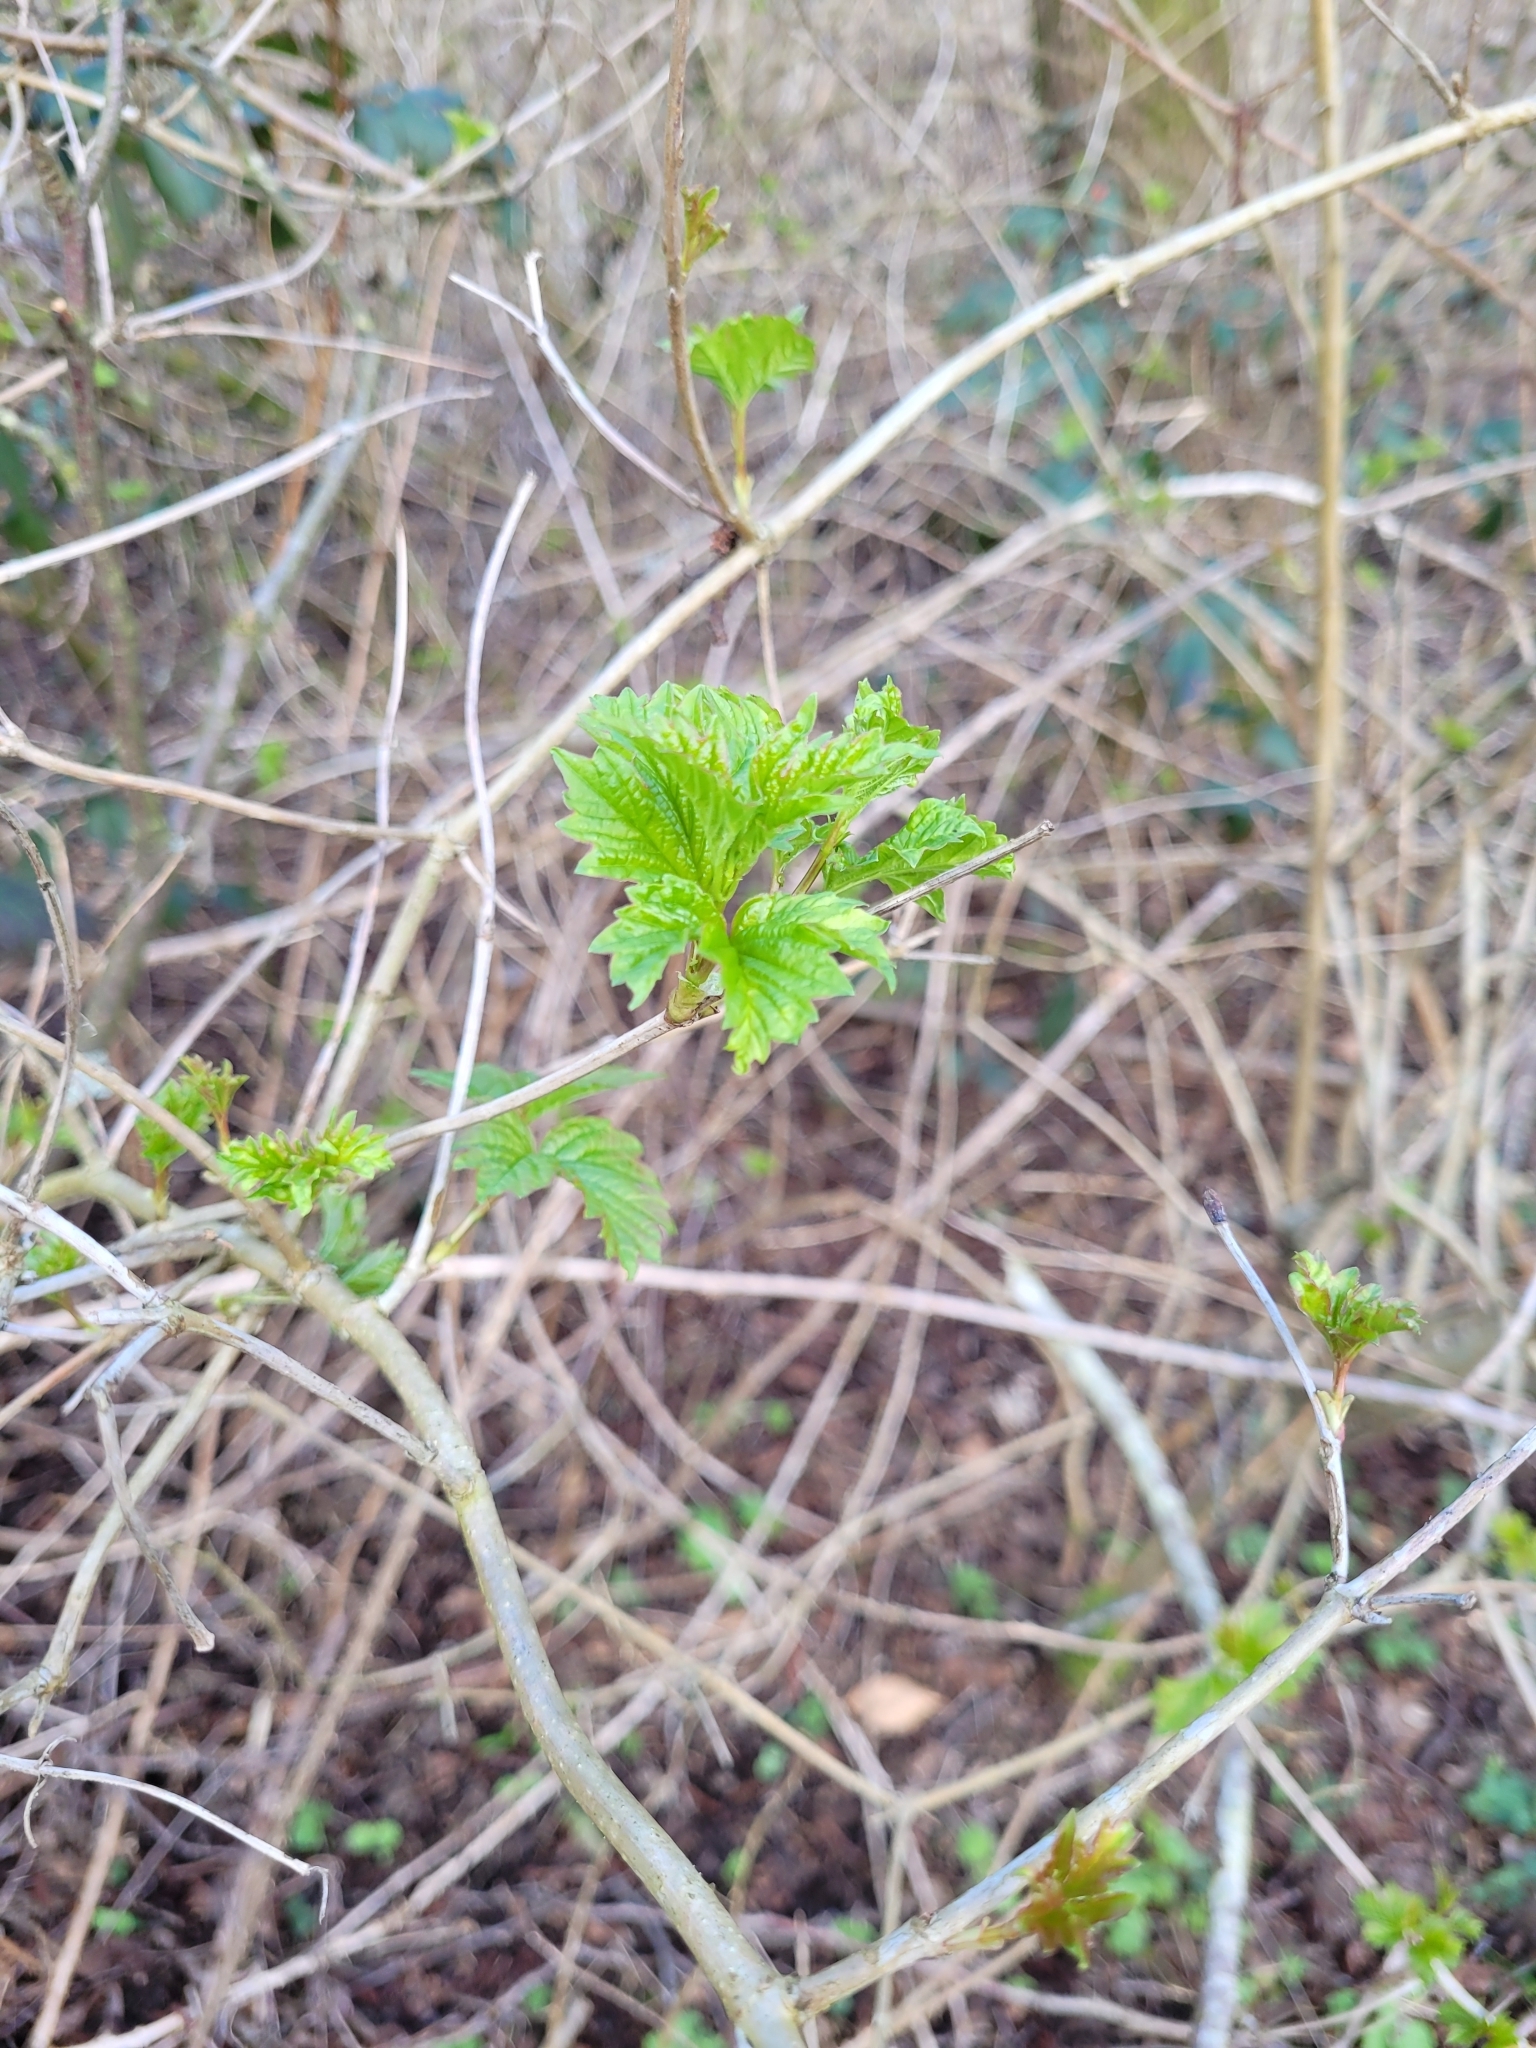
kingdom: Plantae
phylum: Tracheophyta
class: Magnoliopsida
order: Dipsacales
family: Viburnaceae
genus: Viburnum
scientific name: Viburnum opulus
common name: Guelder-rose
